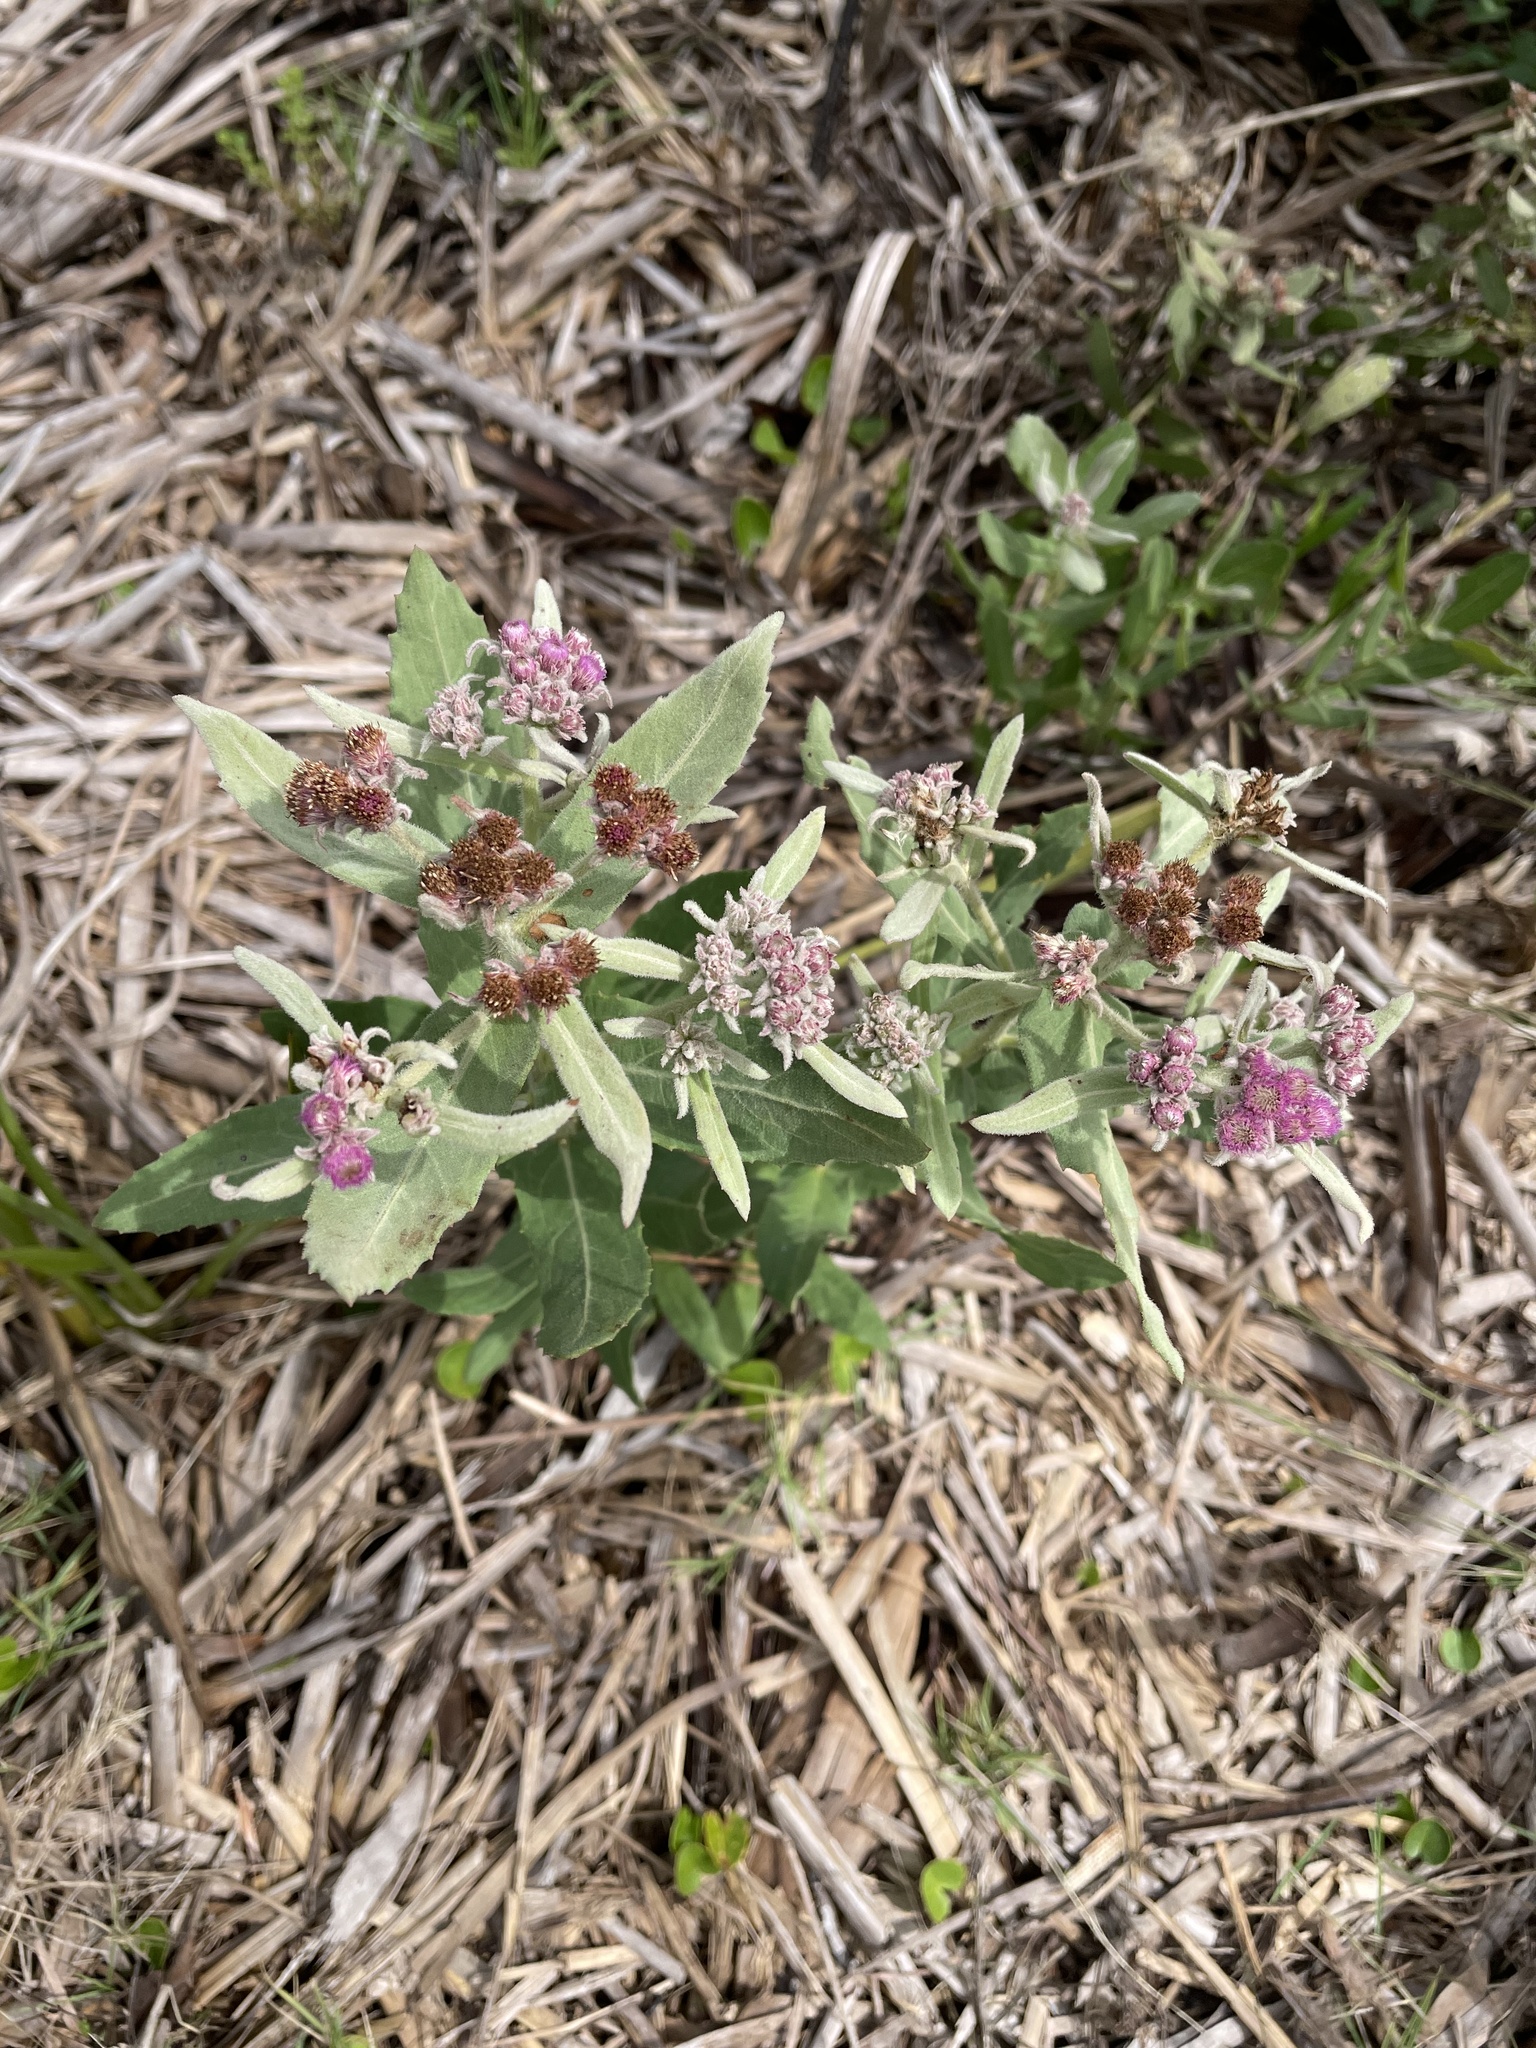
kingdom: Plantae
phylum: Tracheophyta
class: Magnoliopsida
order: Asterales
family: Asteraceae
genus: Pluchea
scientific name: Pluchea baccharis
